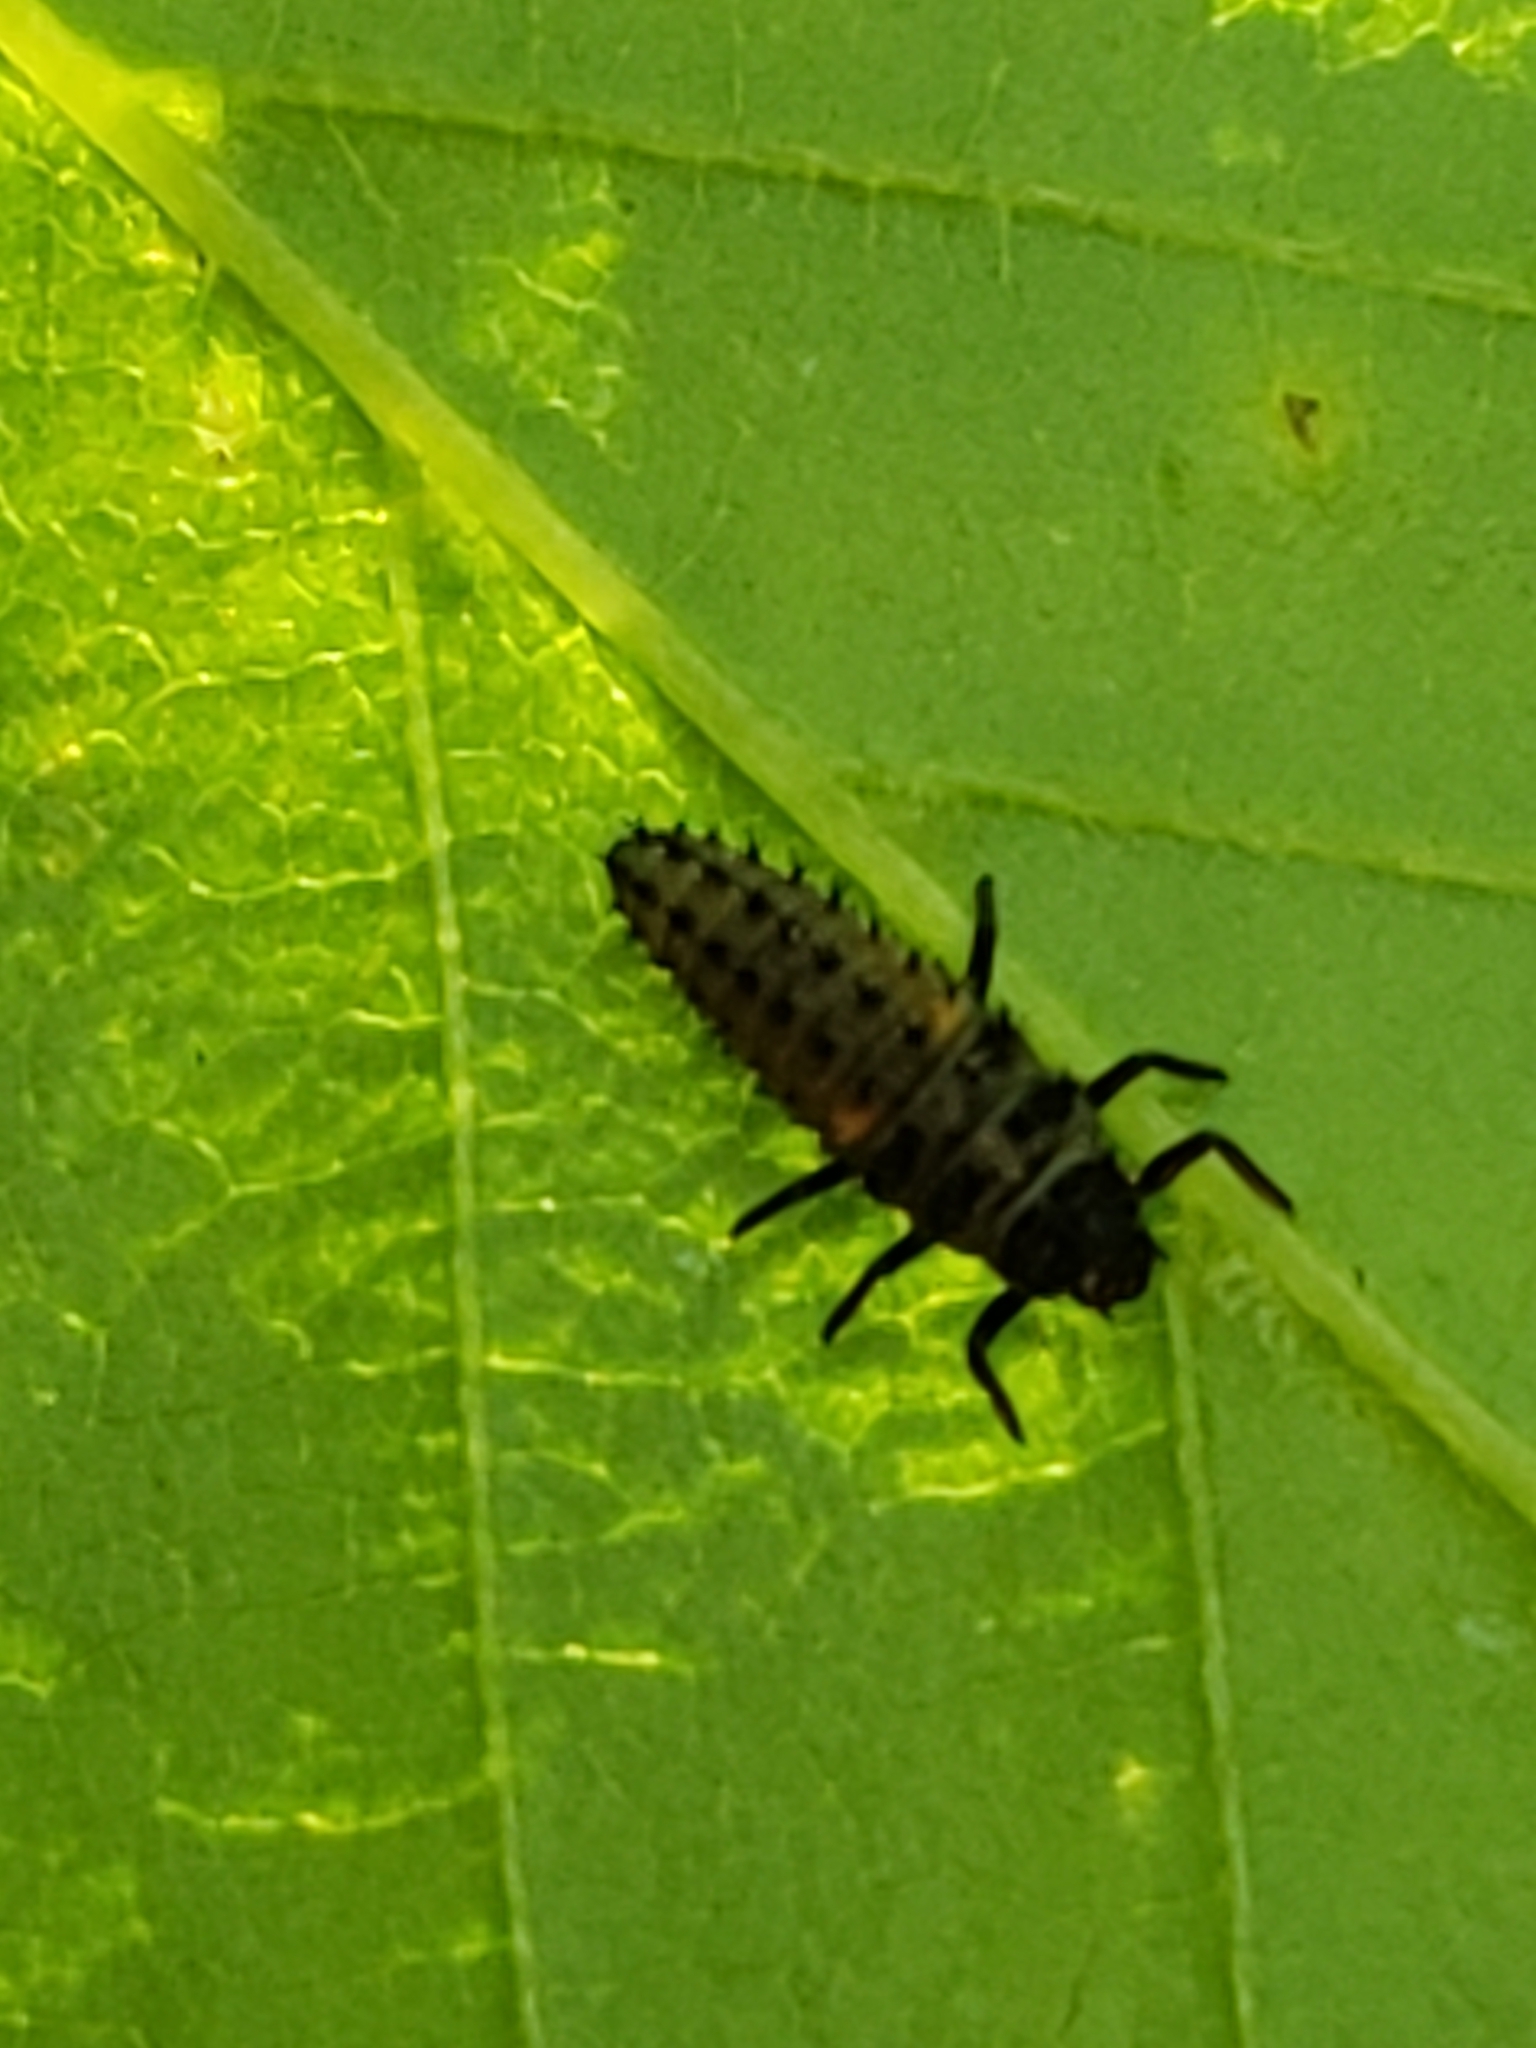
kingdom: Animalia
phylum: Arthropoda
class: Insecta
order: Coleoptera
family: Coccinellidae
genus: Harmonia
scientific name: Harmonia axyridis
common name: Harlequin ladybird
